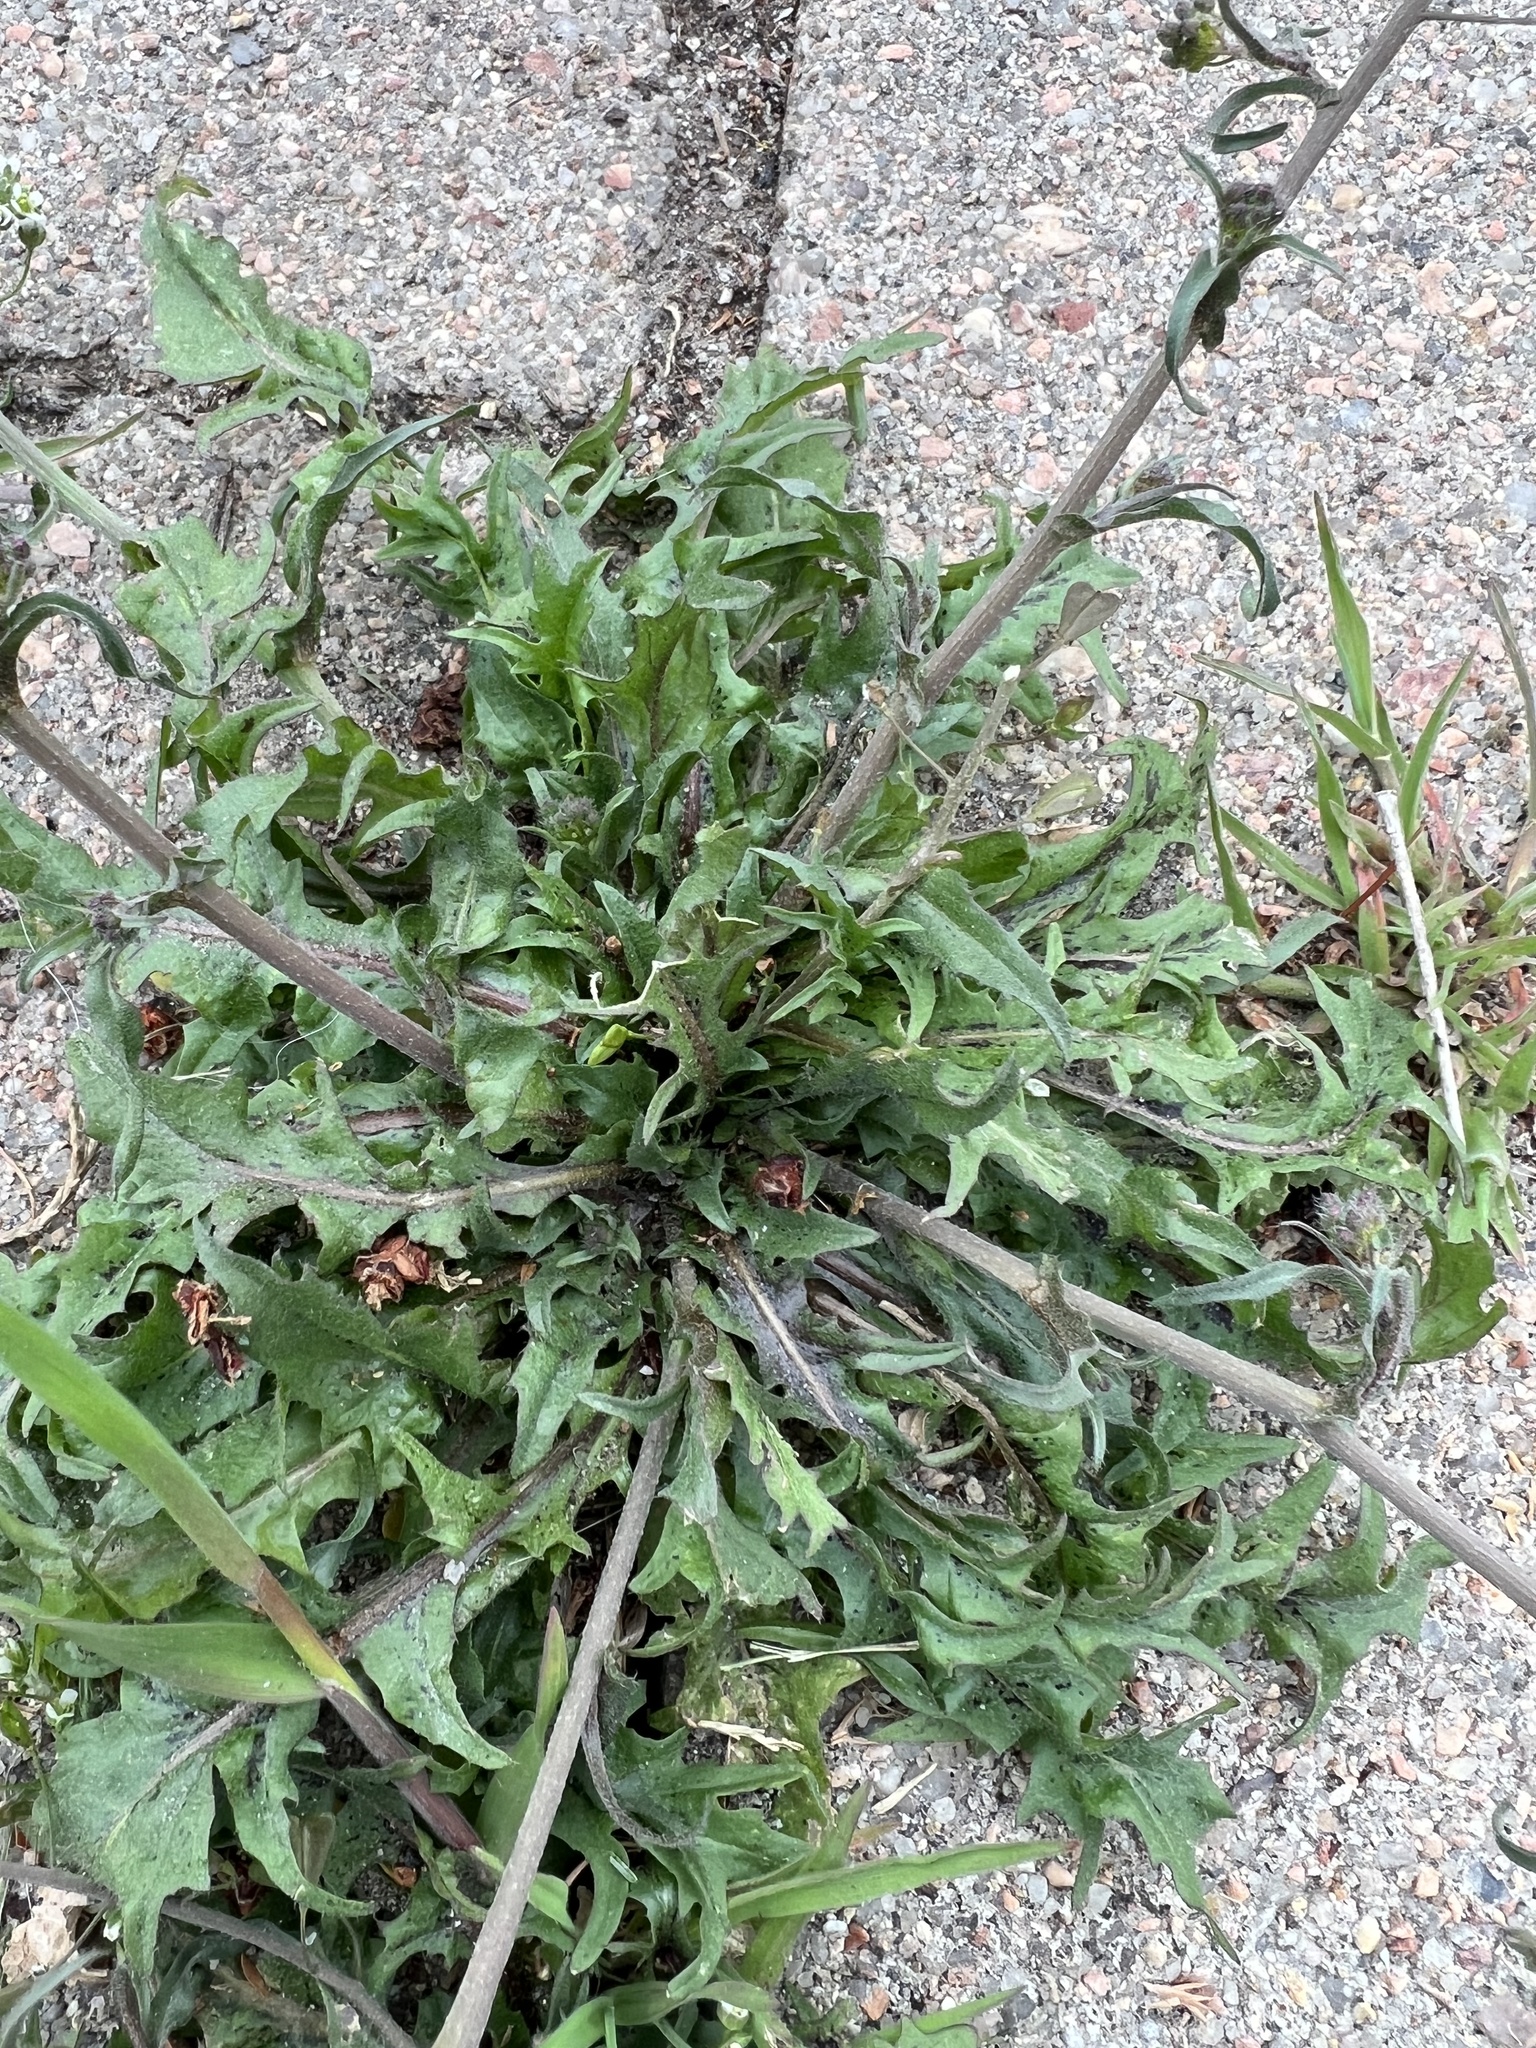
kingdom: Plantae
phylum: Tracheophyta
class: Magnoliopsida
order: Brassicales
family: Brassicaceae
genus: Capsella
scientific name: Capsella bursa-pastoris
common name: Shepherd's purse
